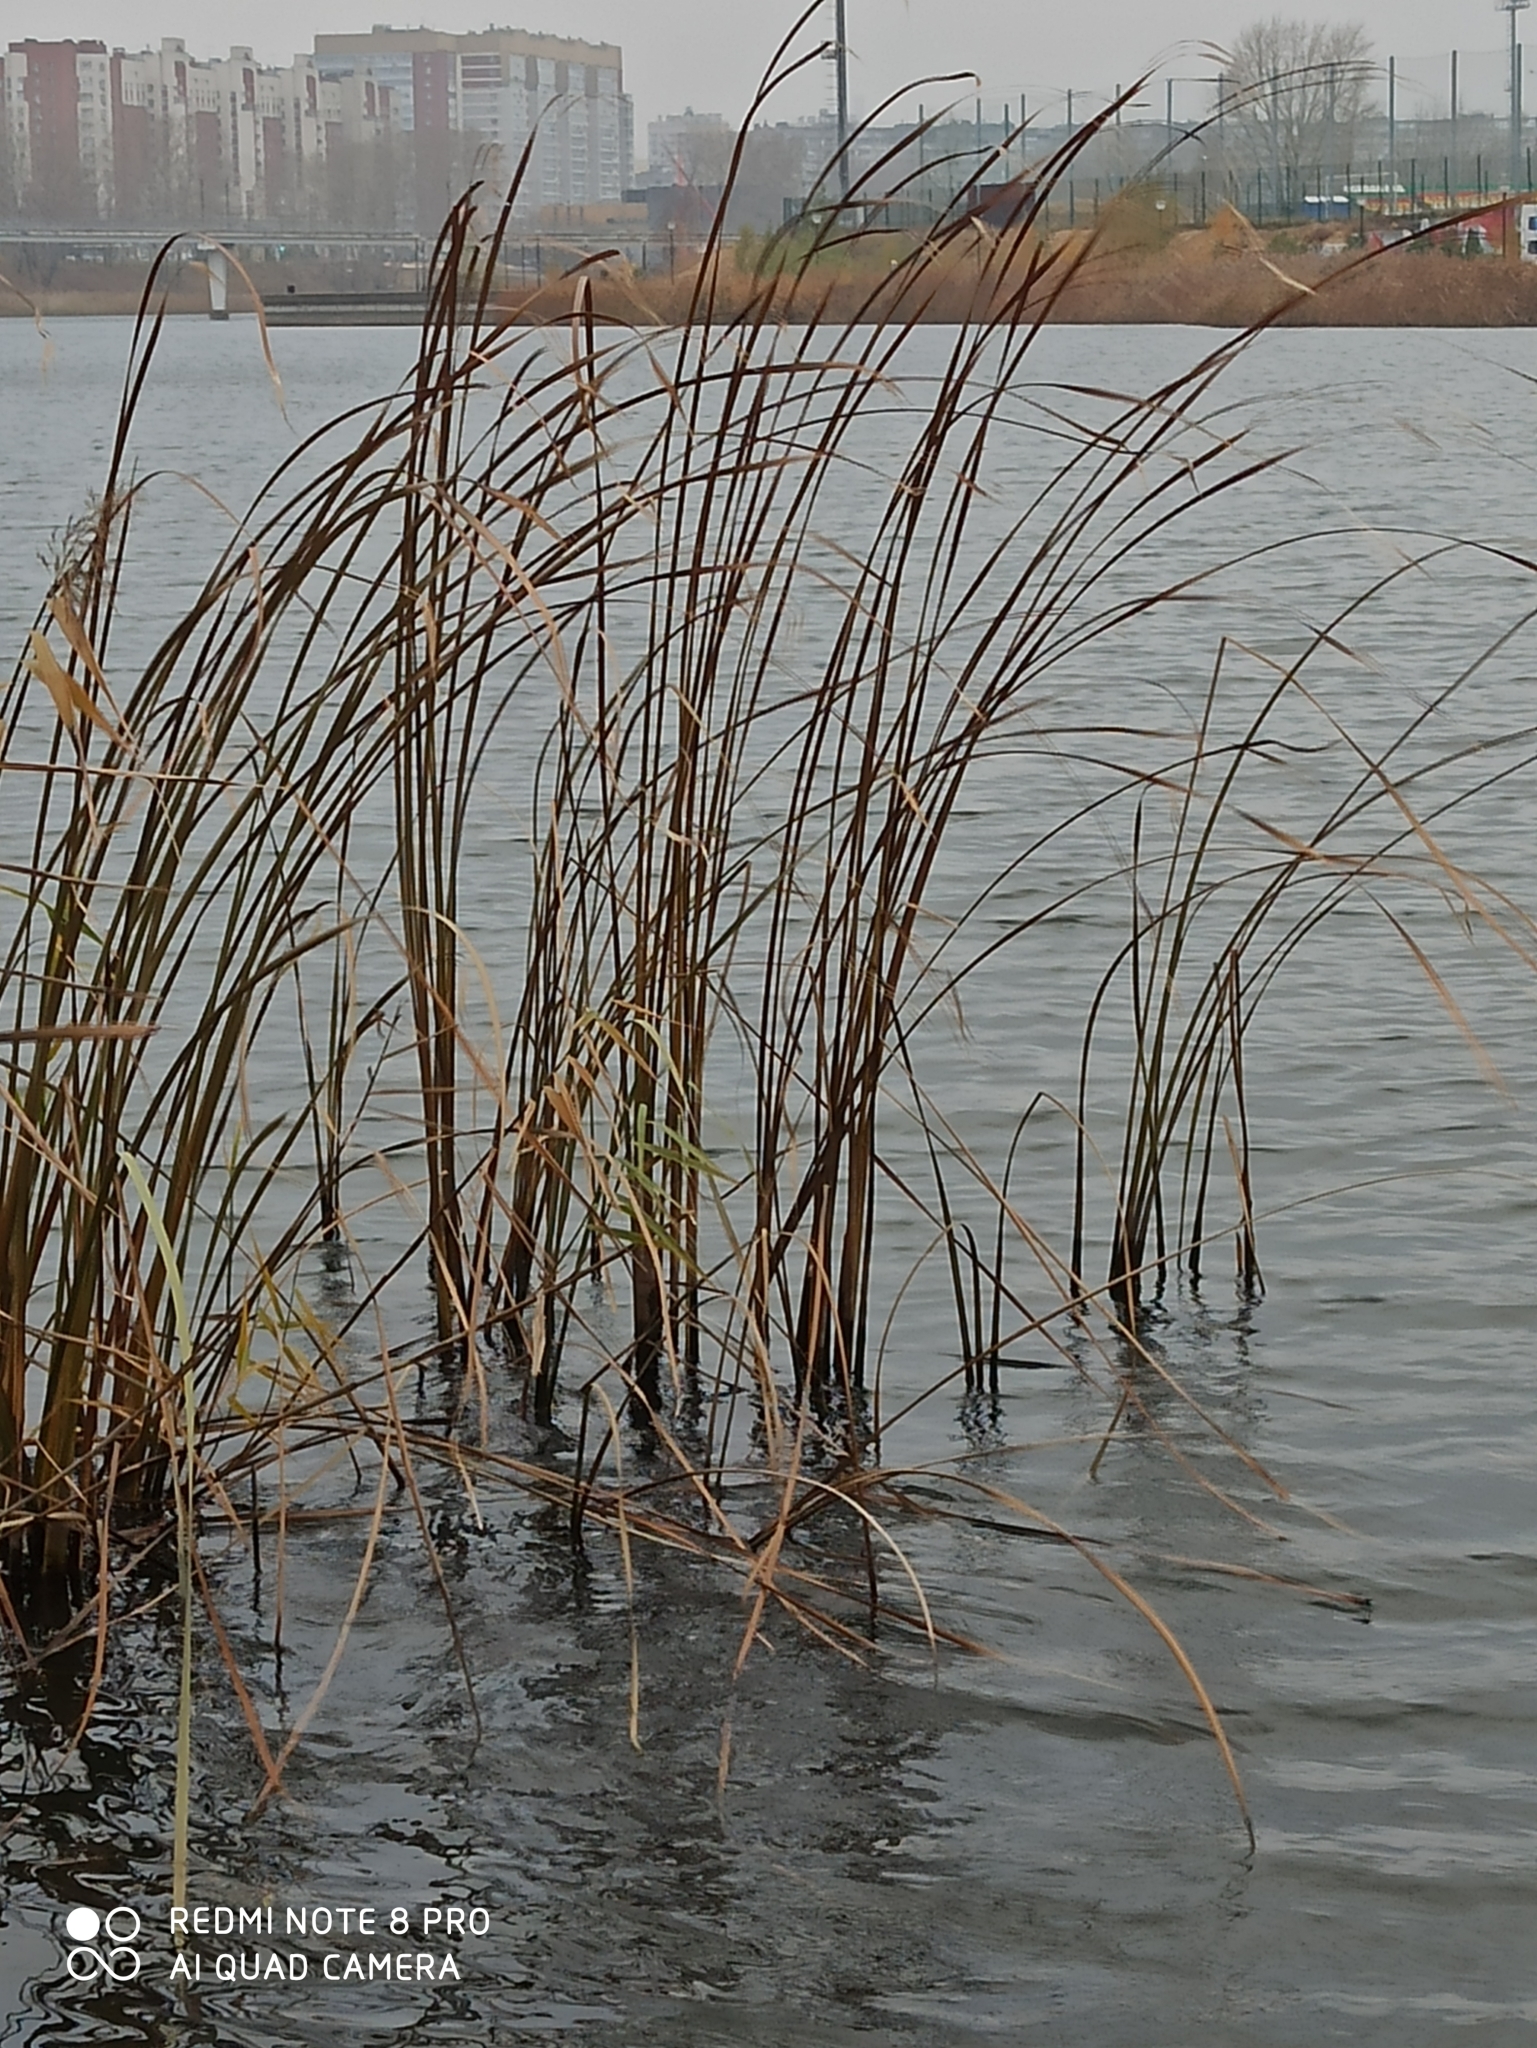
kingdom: Plantae
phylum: Tracheophyta
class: Liliopsida
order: Poales
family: Typhaceae
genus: Typha
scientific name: Typha angustifolia
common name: Lesser bulrush
